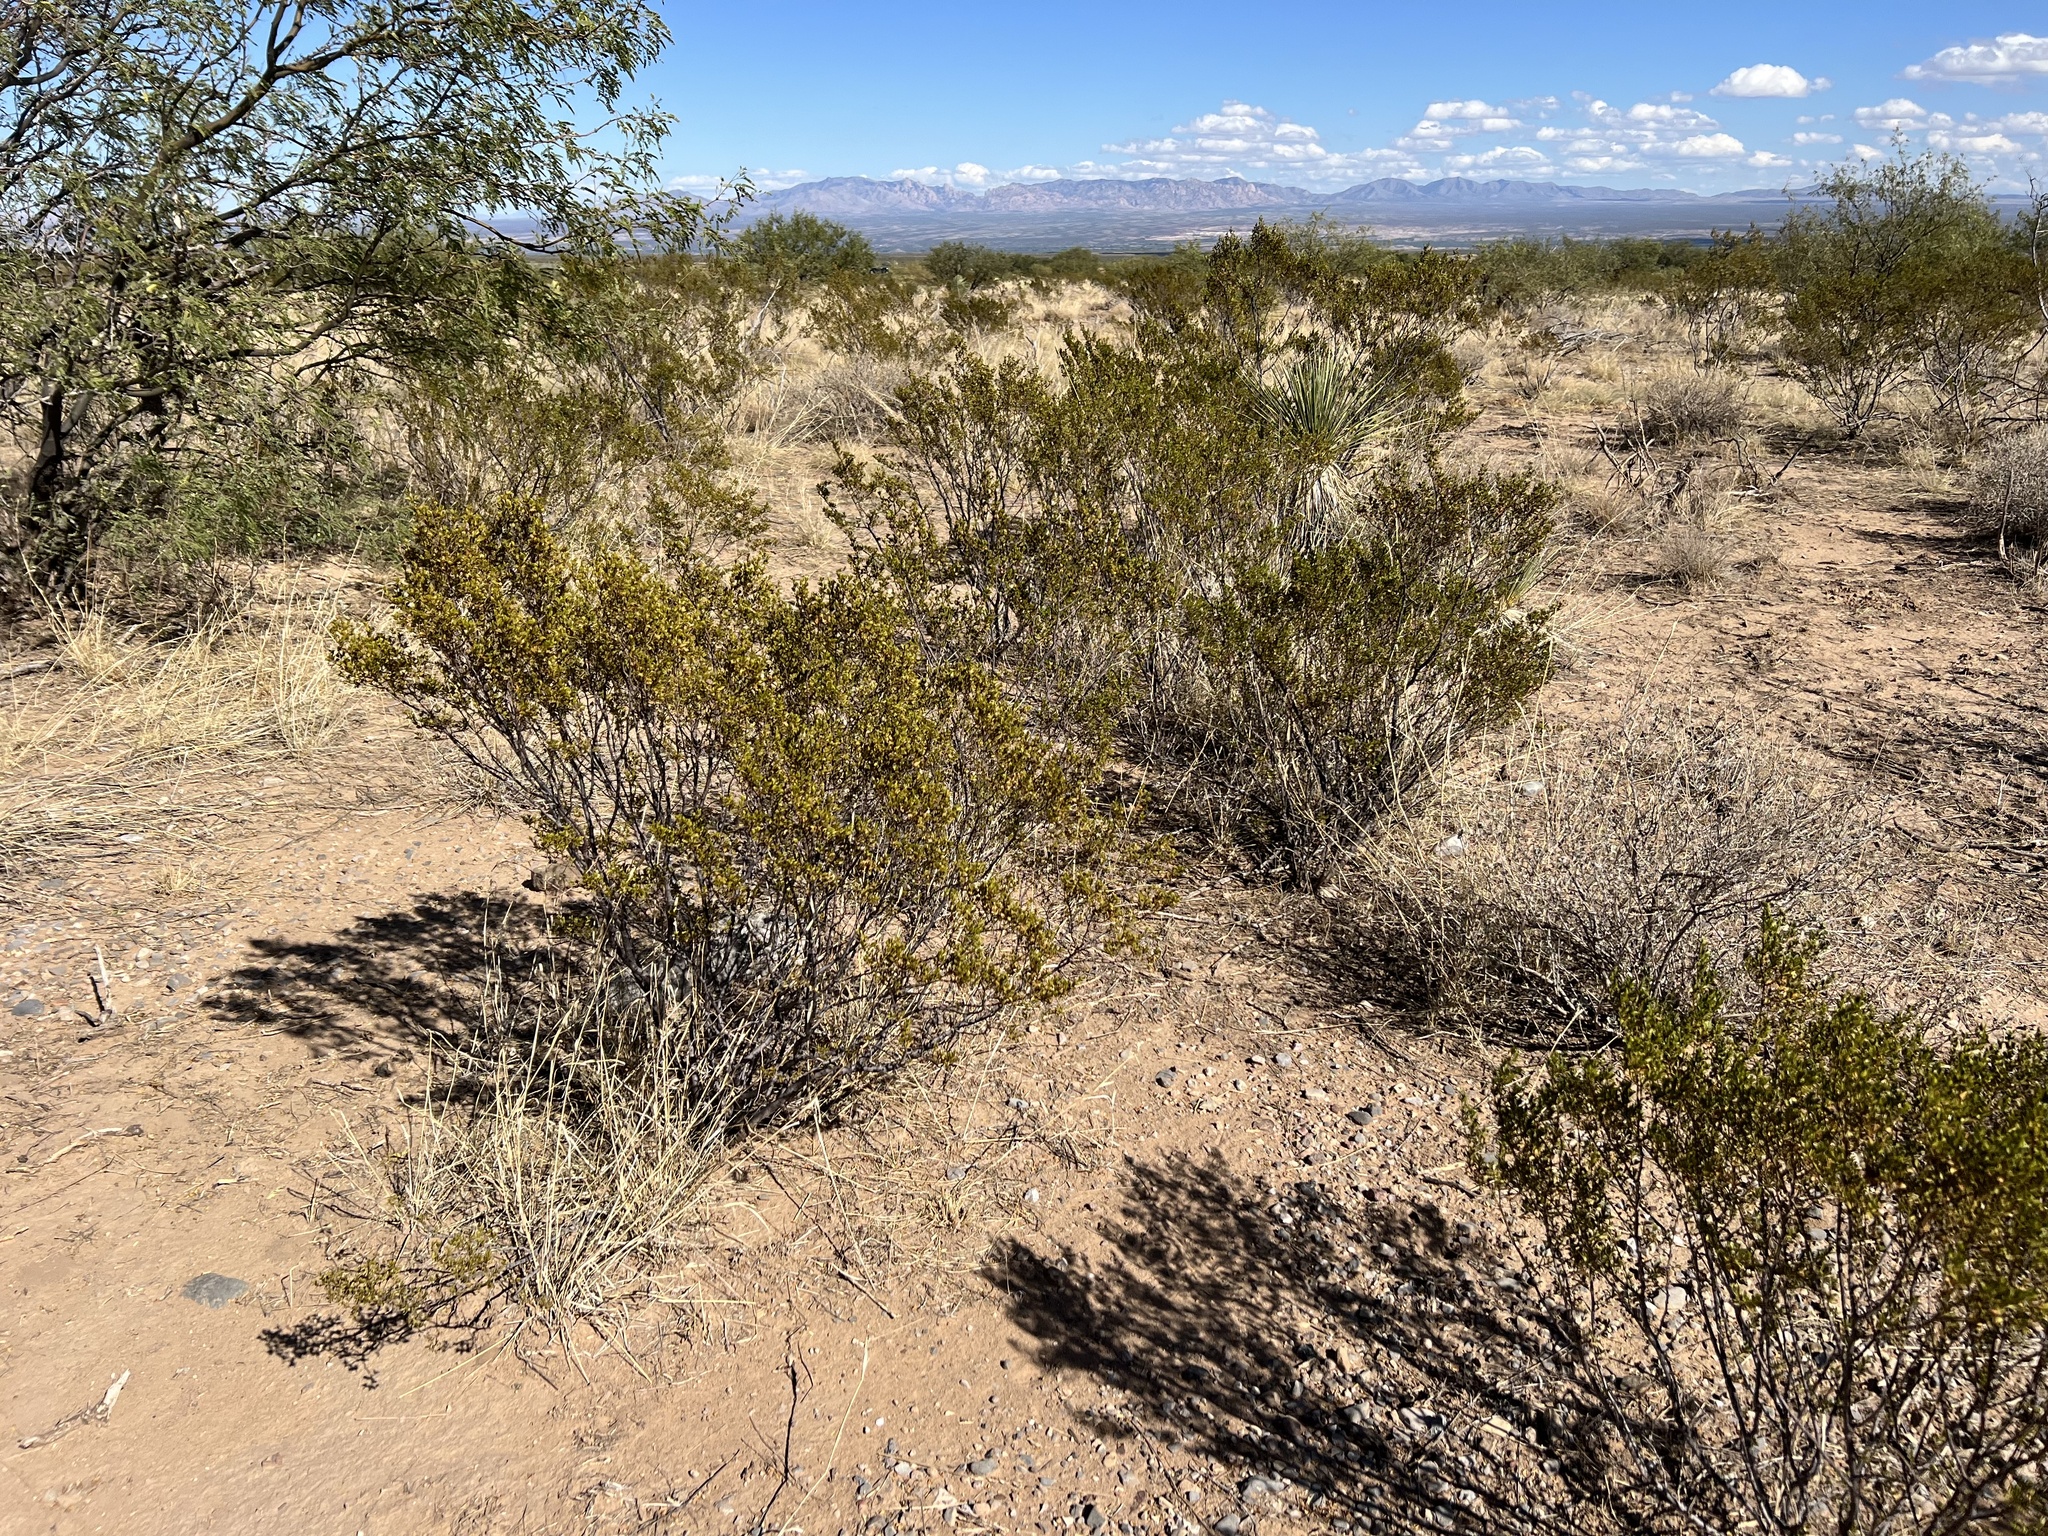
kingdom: Plantae
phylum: Tracheophyta
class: Magnoliopsida
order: Zygophyllales
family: Zygophyllaceae
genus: Larrea
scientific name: Larrea tridentata
